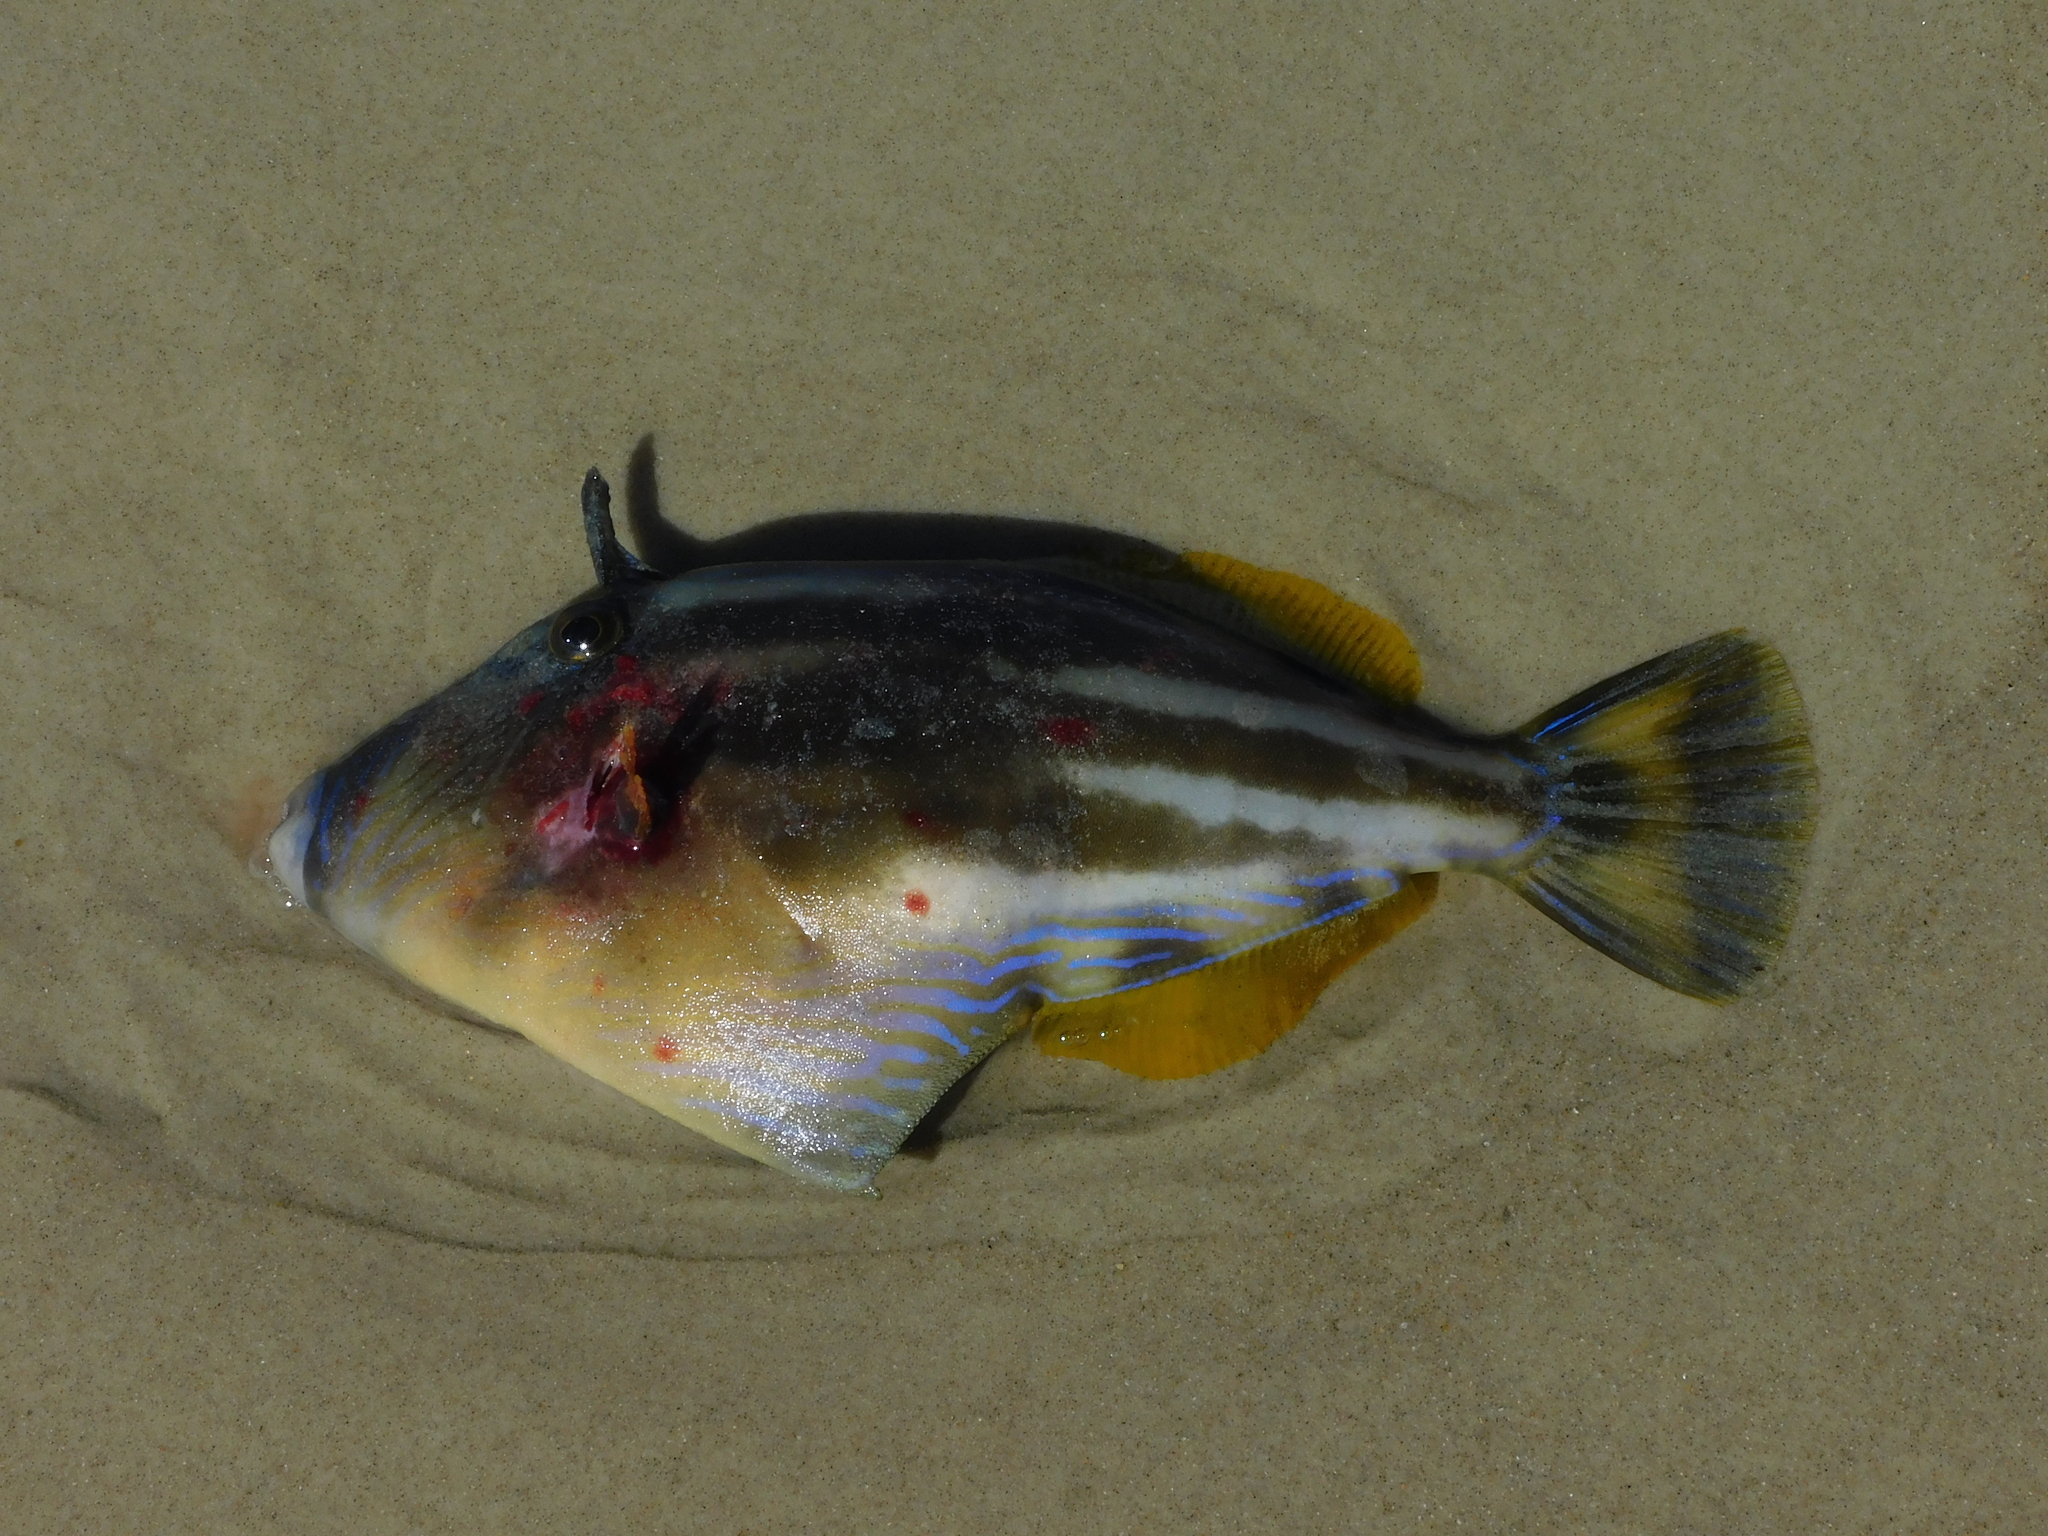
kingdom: Animalia
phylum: Chordata
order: Tetraodontiformes
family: Monacanthidae
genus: Meuschenia
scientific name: Meuschenia australis
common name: Brownstriped leatherjacket
